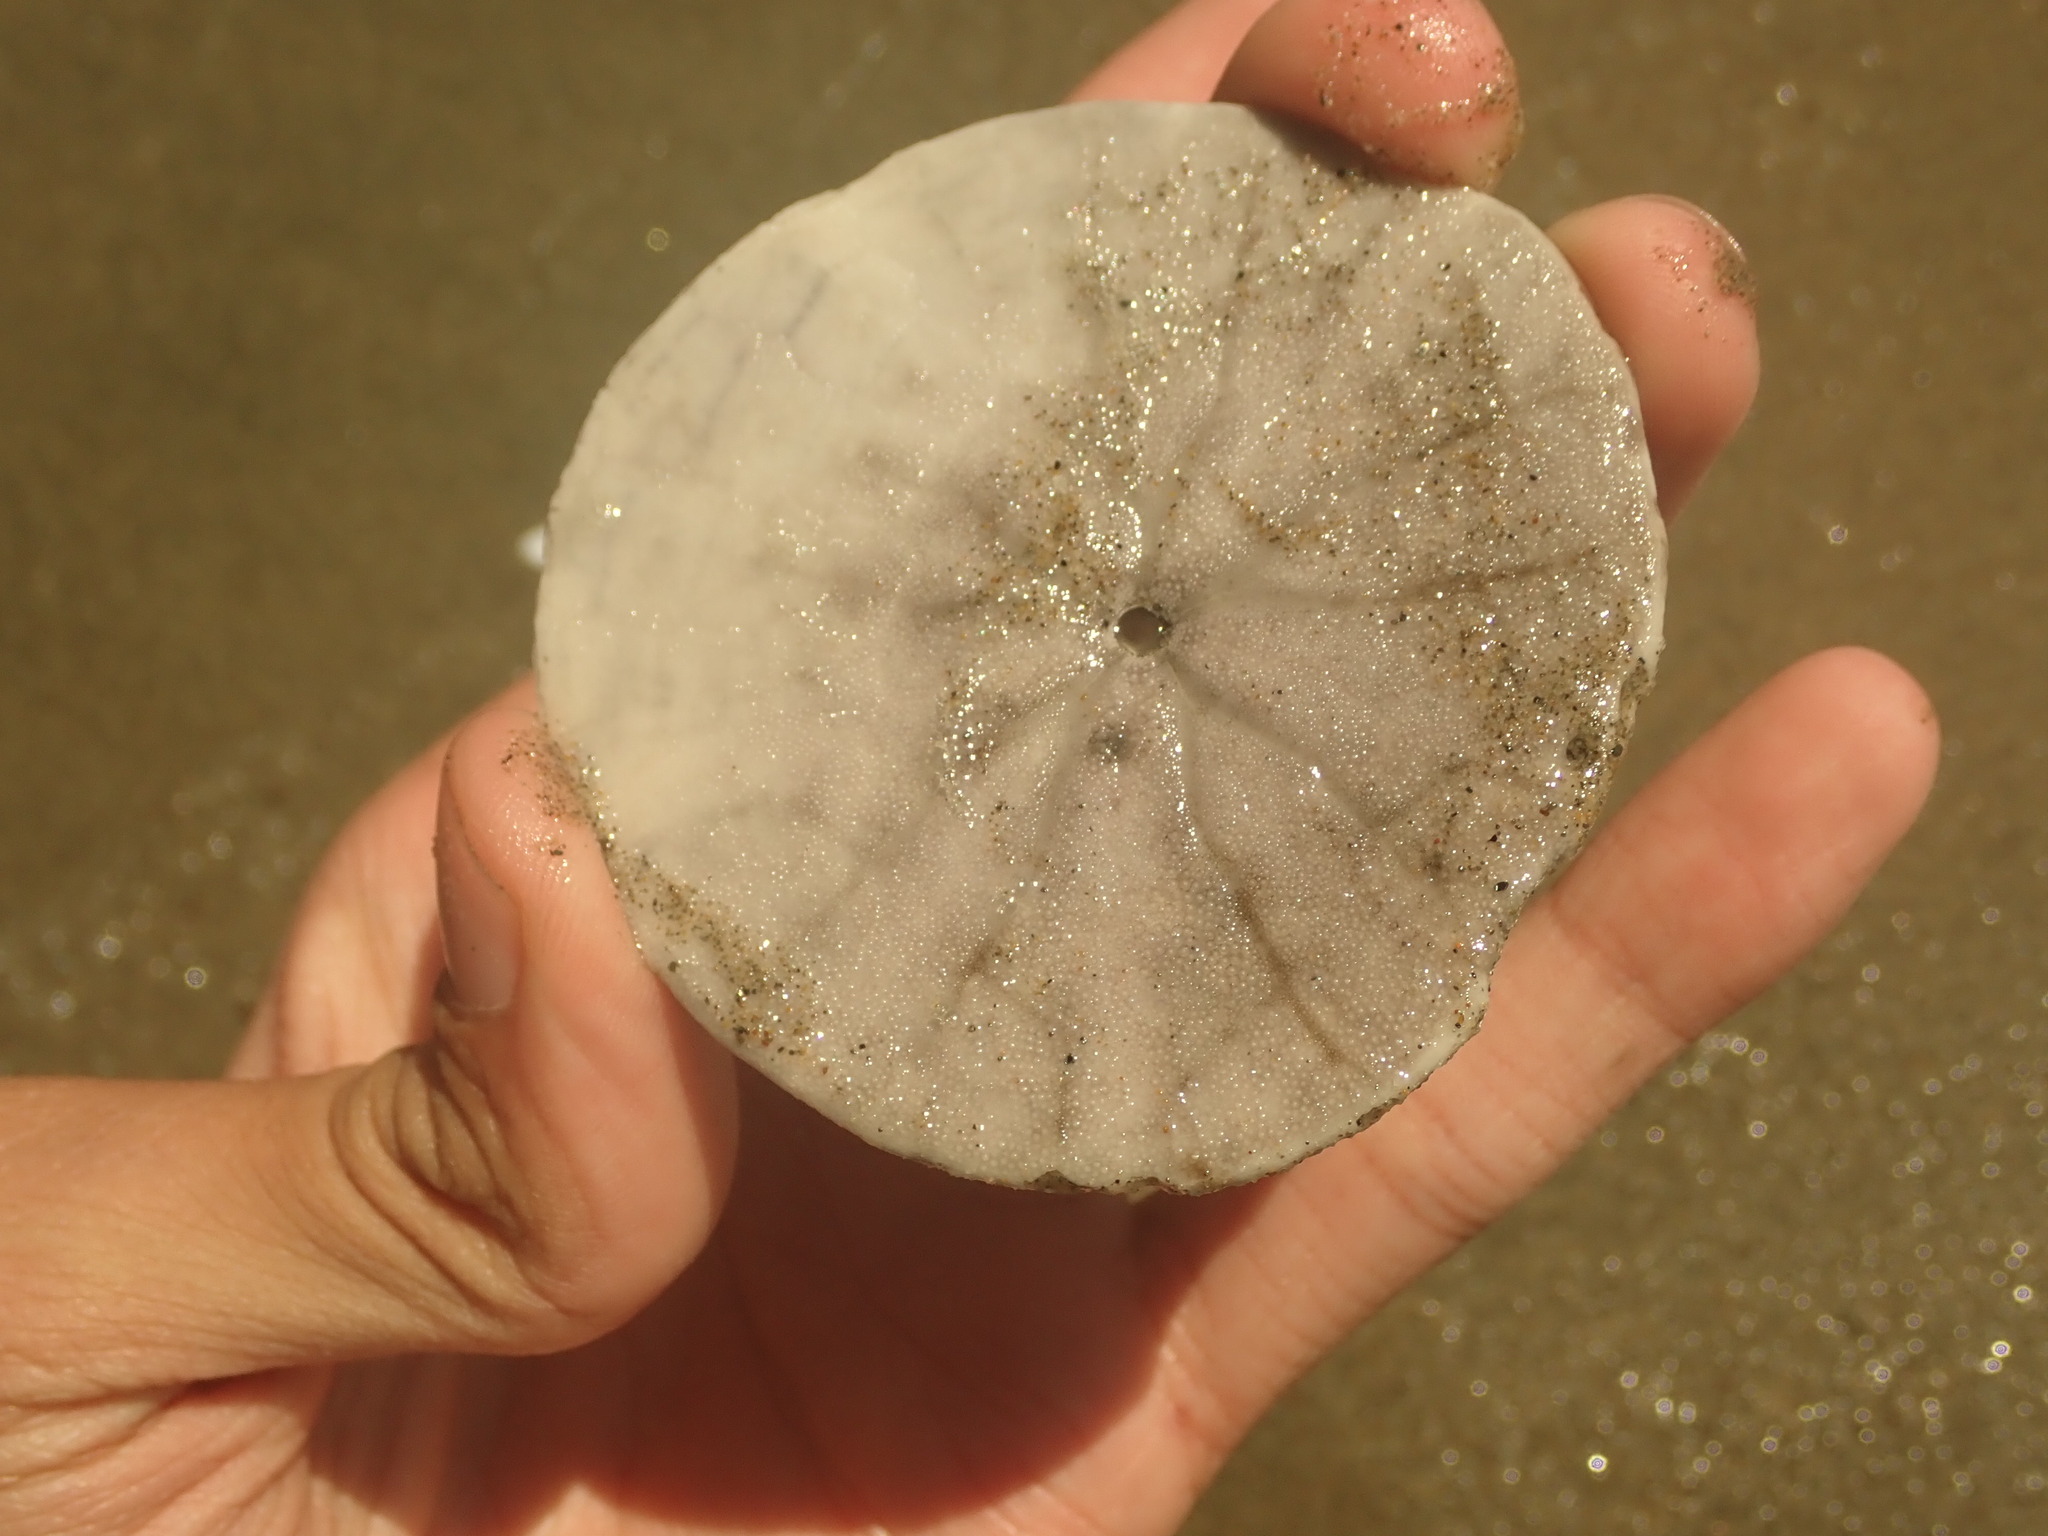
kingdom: Animalia
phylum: Echinodermata
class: Echinoidea
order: Echinolampadacea
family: Dendrasteridae
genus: Dendraster
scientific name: Dendraster excentricus
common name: Eccentric sand dollar sea urchin
